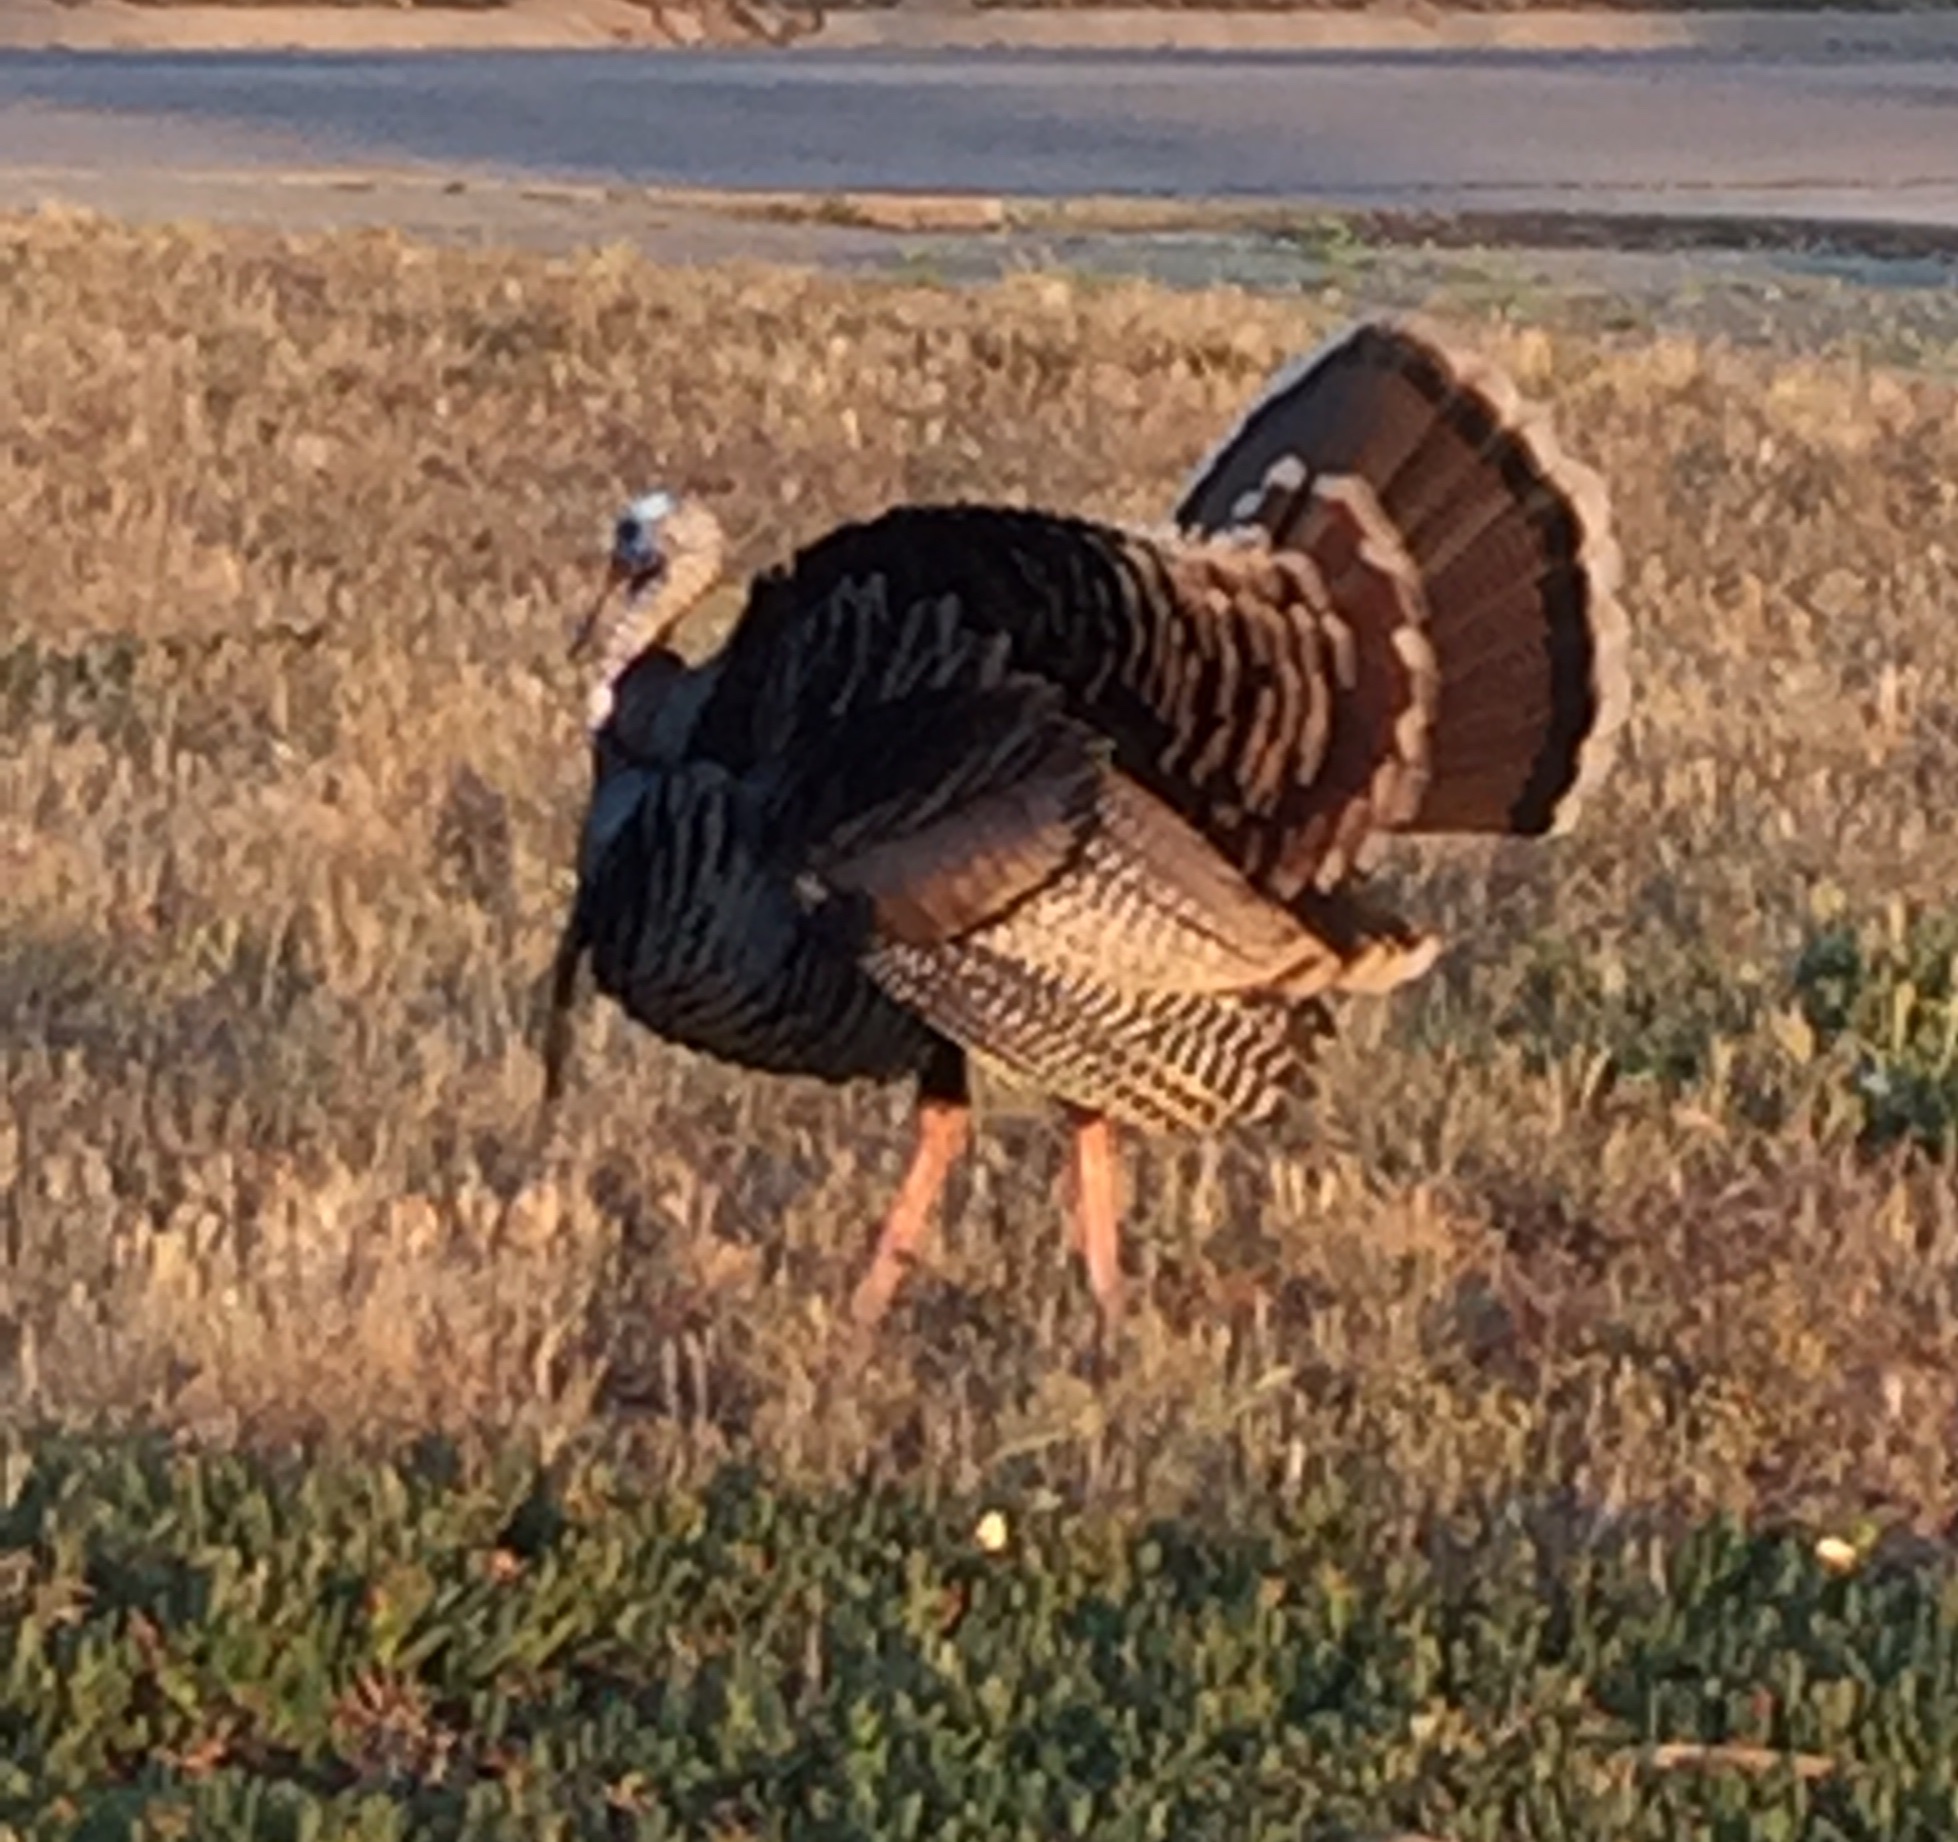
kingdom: Animalia
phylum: Chordata
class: Aves
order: Galliformes
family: Phasianidae
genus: Meleagris
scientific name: Meleagris gallopavo
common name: Wild turkey
